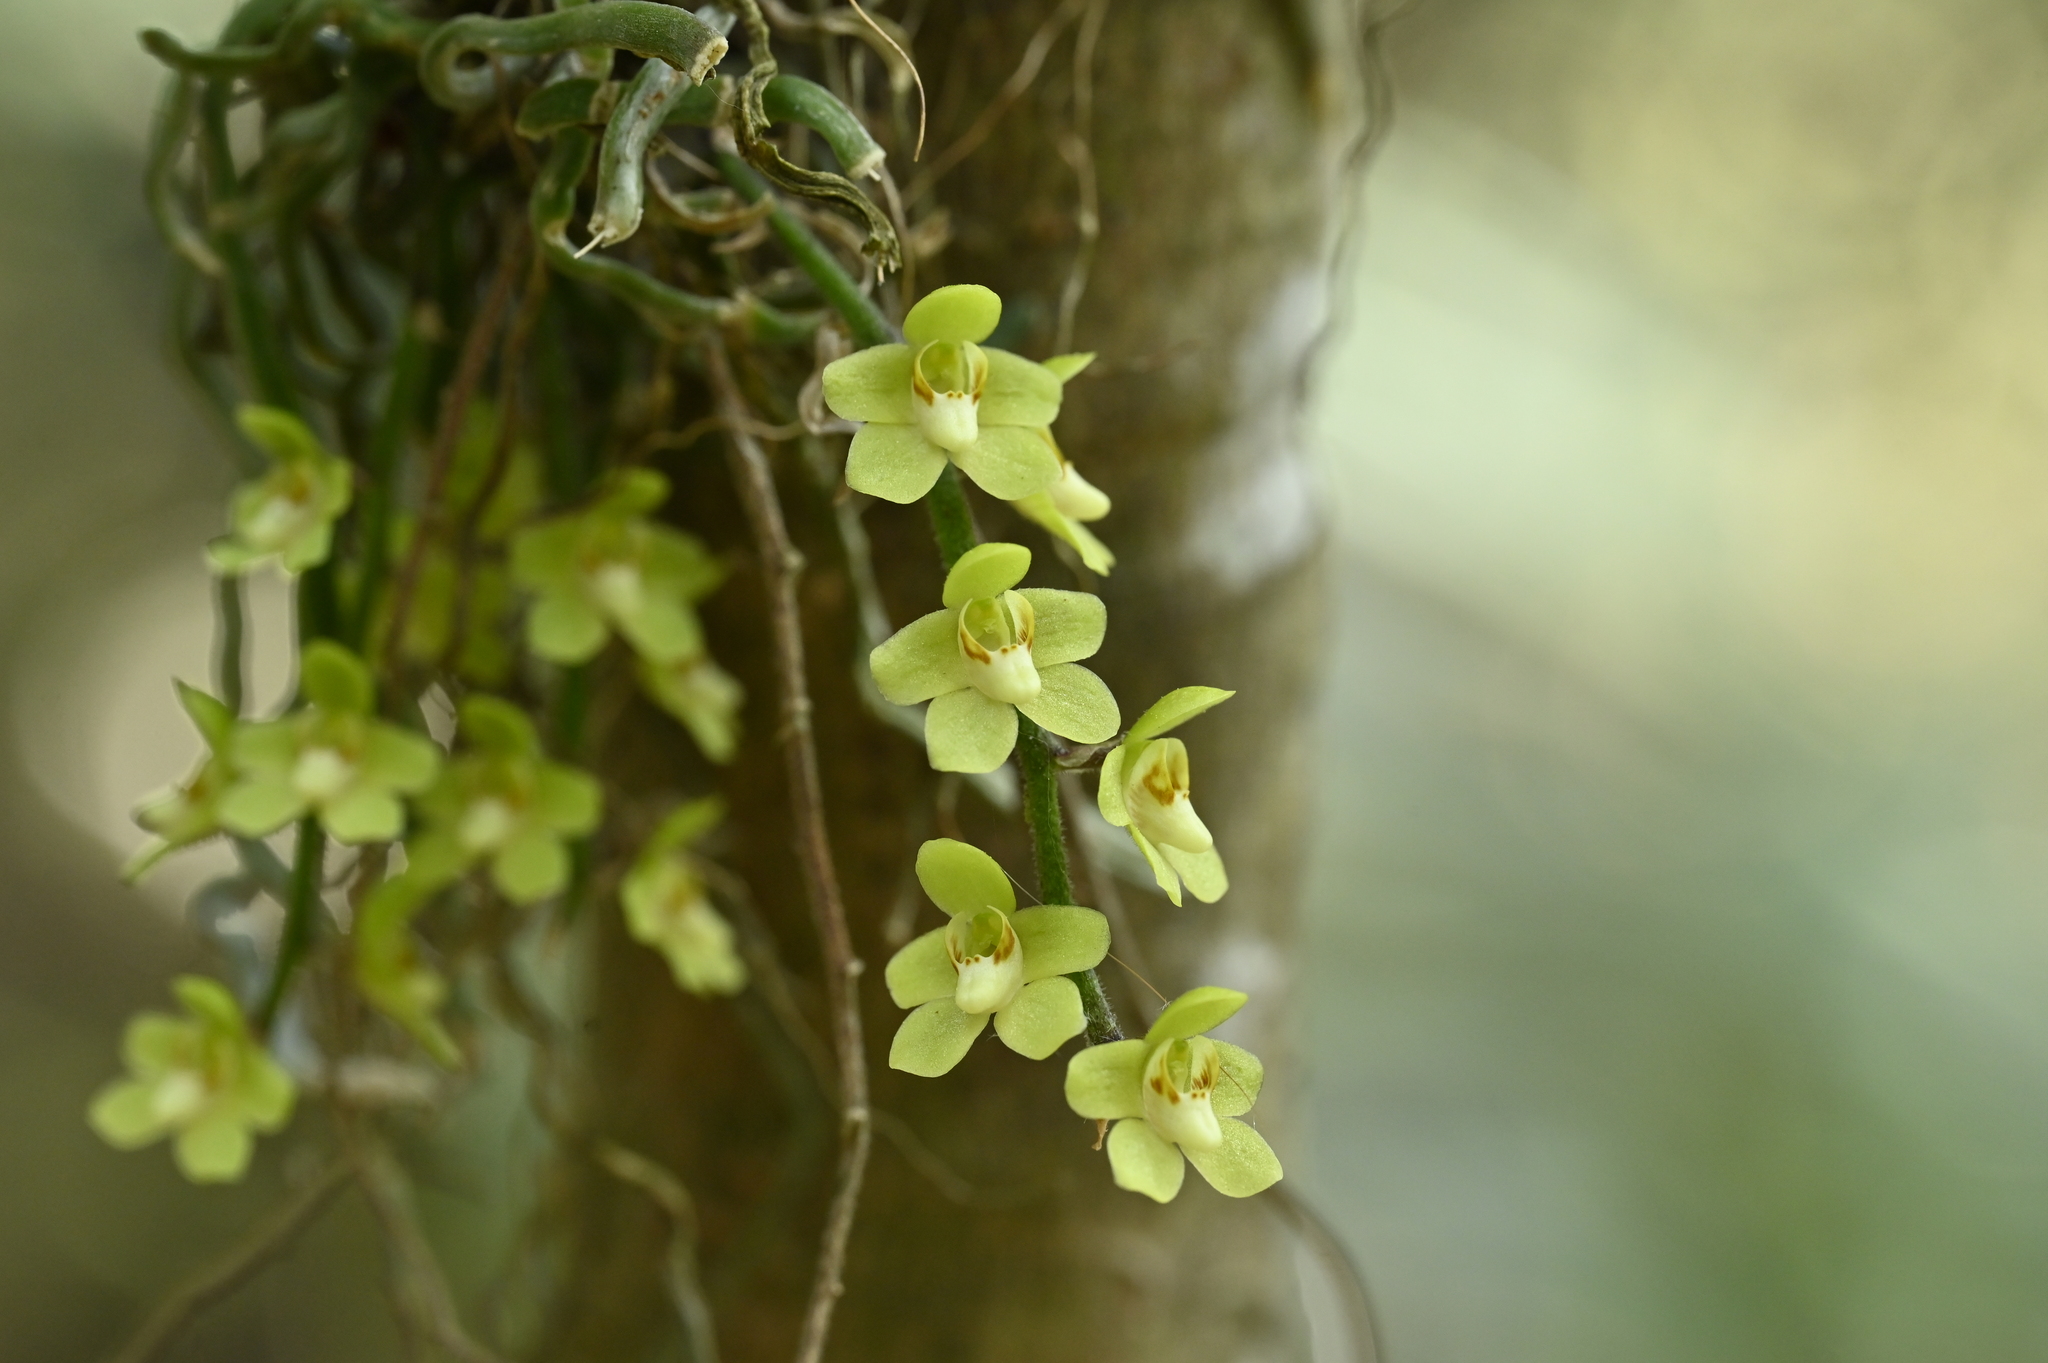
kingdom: Plantae
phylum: Tracheophyta
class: Liliopsida
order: Asparagales
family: Orchidaceae
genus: Chiloschista
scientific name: Chiloschista segawae
